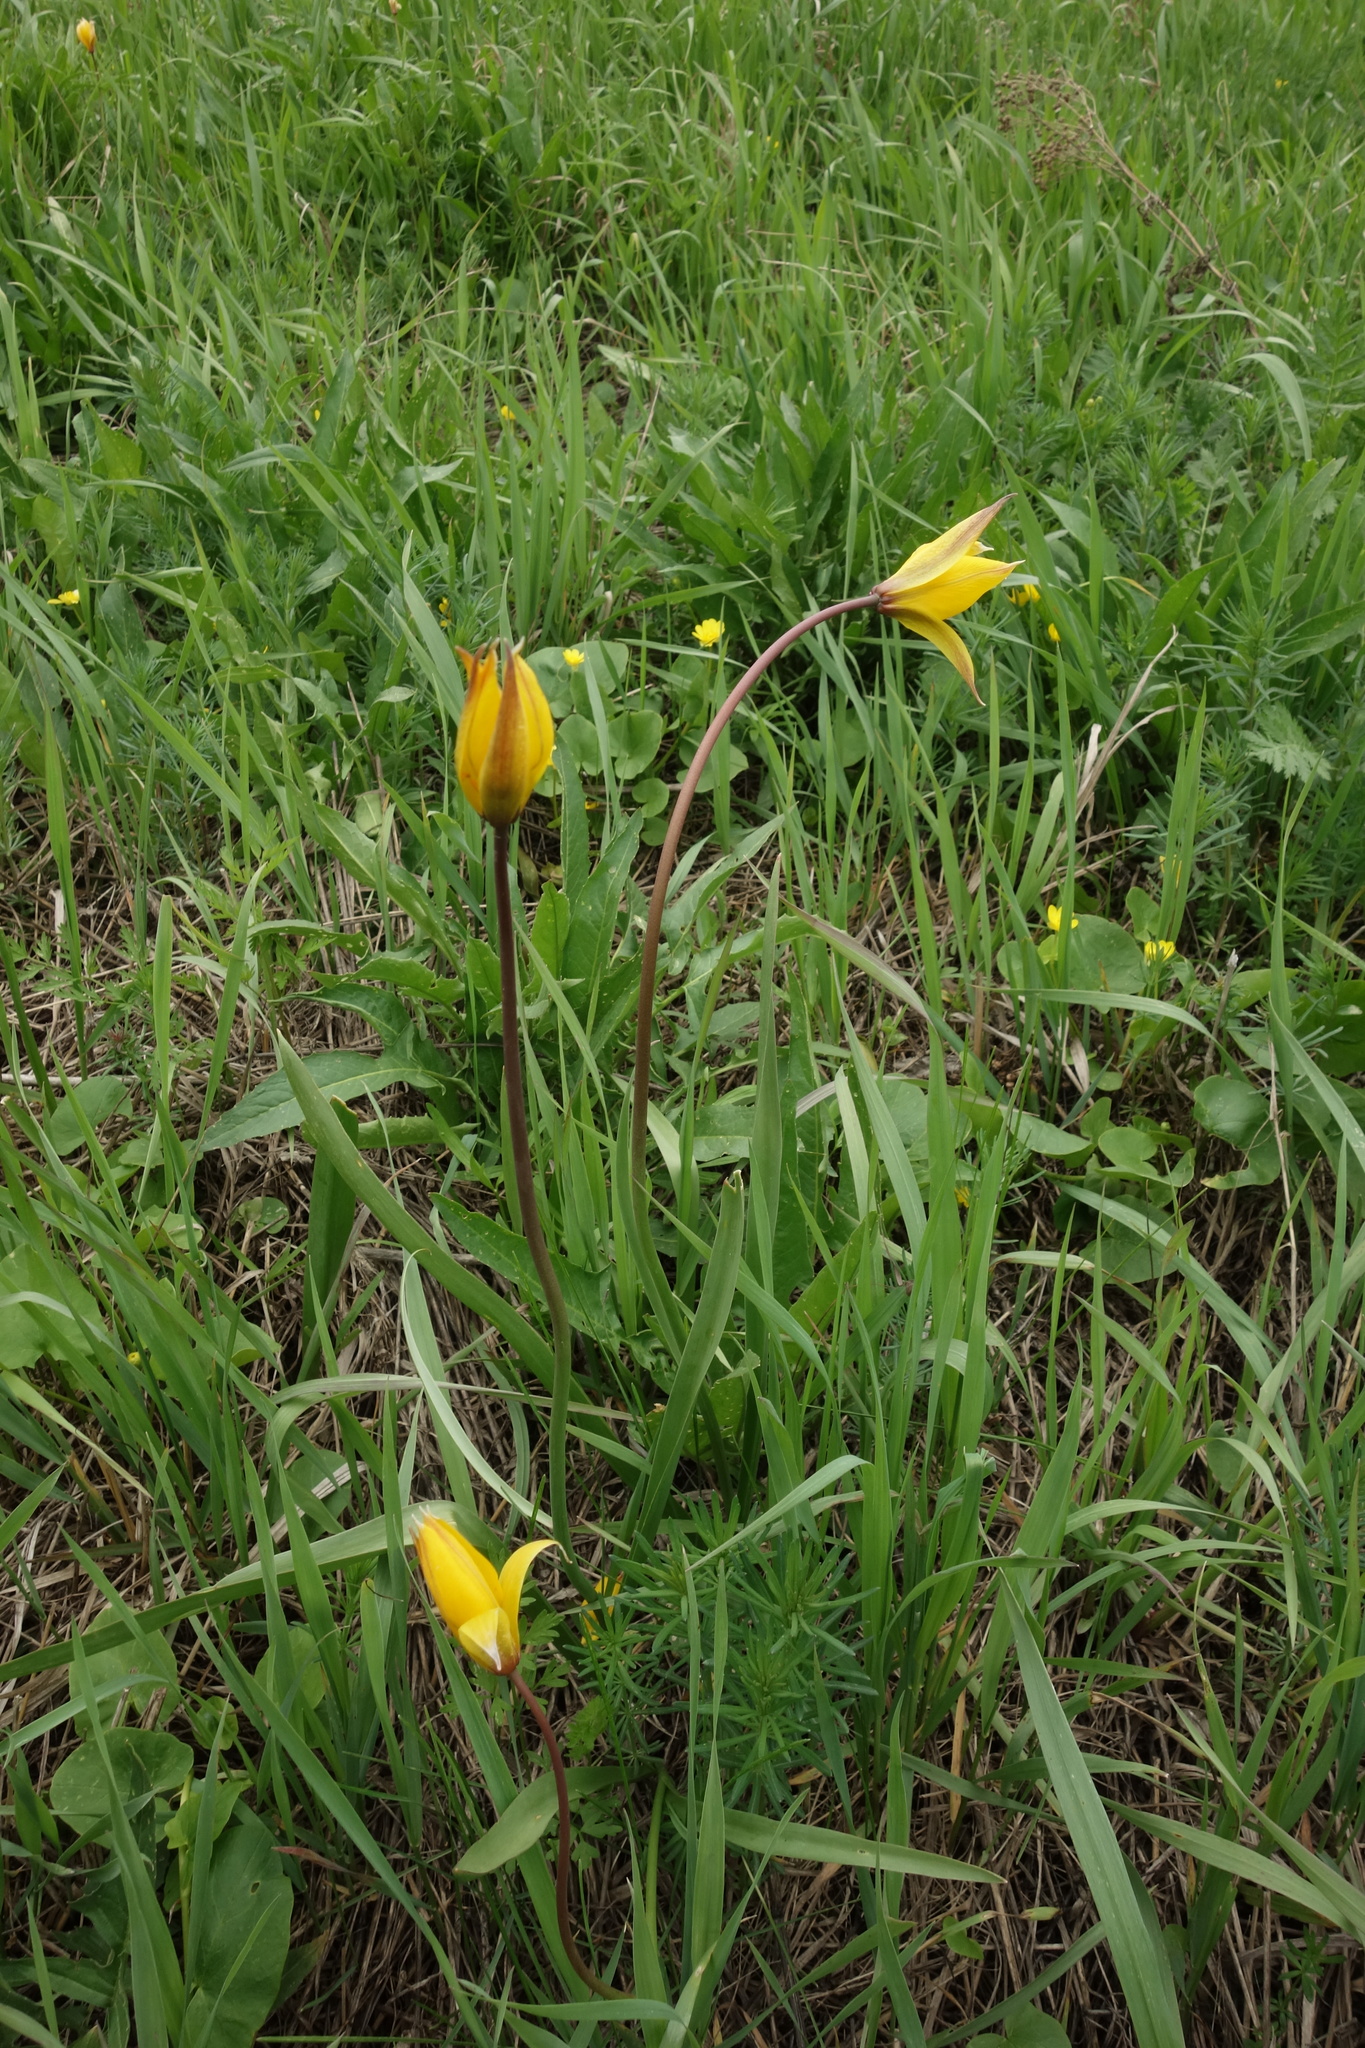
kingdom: Plantae
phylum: Tracheophyta
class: Liliopsida
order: Liliales
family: Liliaceae
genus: Tulipa
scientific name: Tulipa sylvestris
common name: Wild tulip
